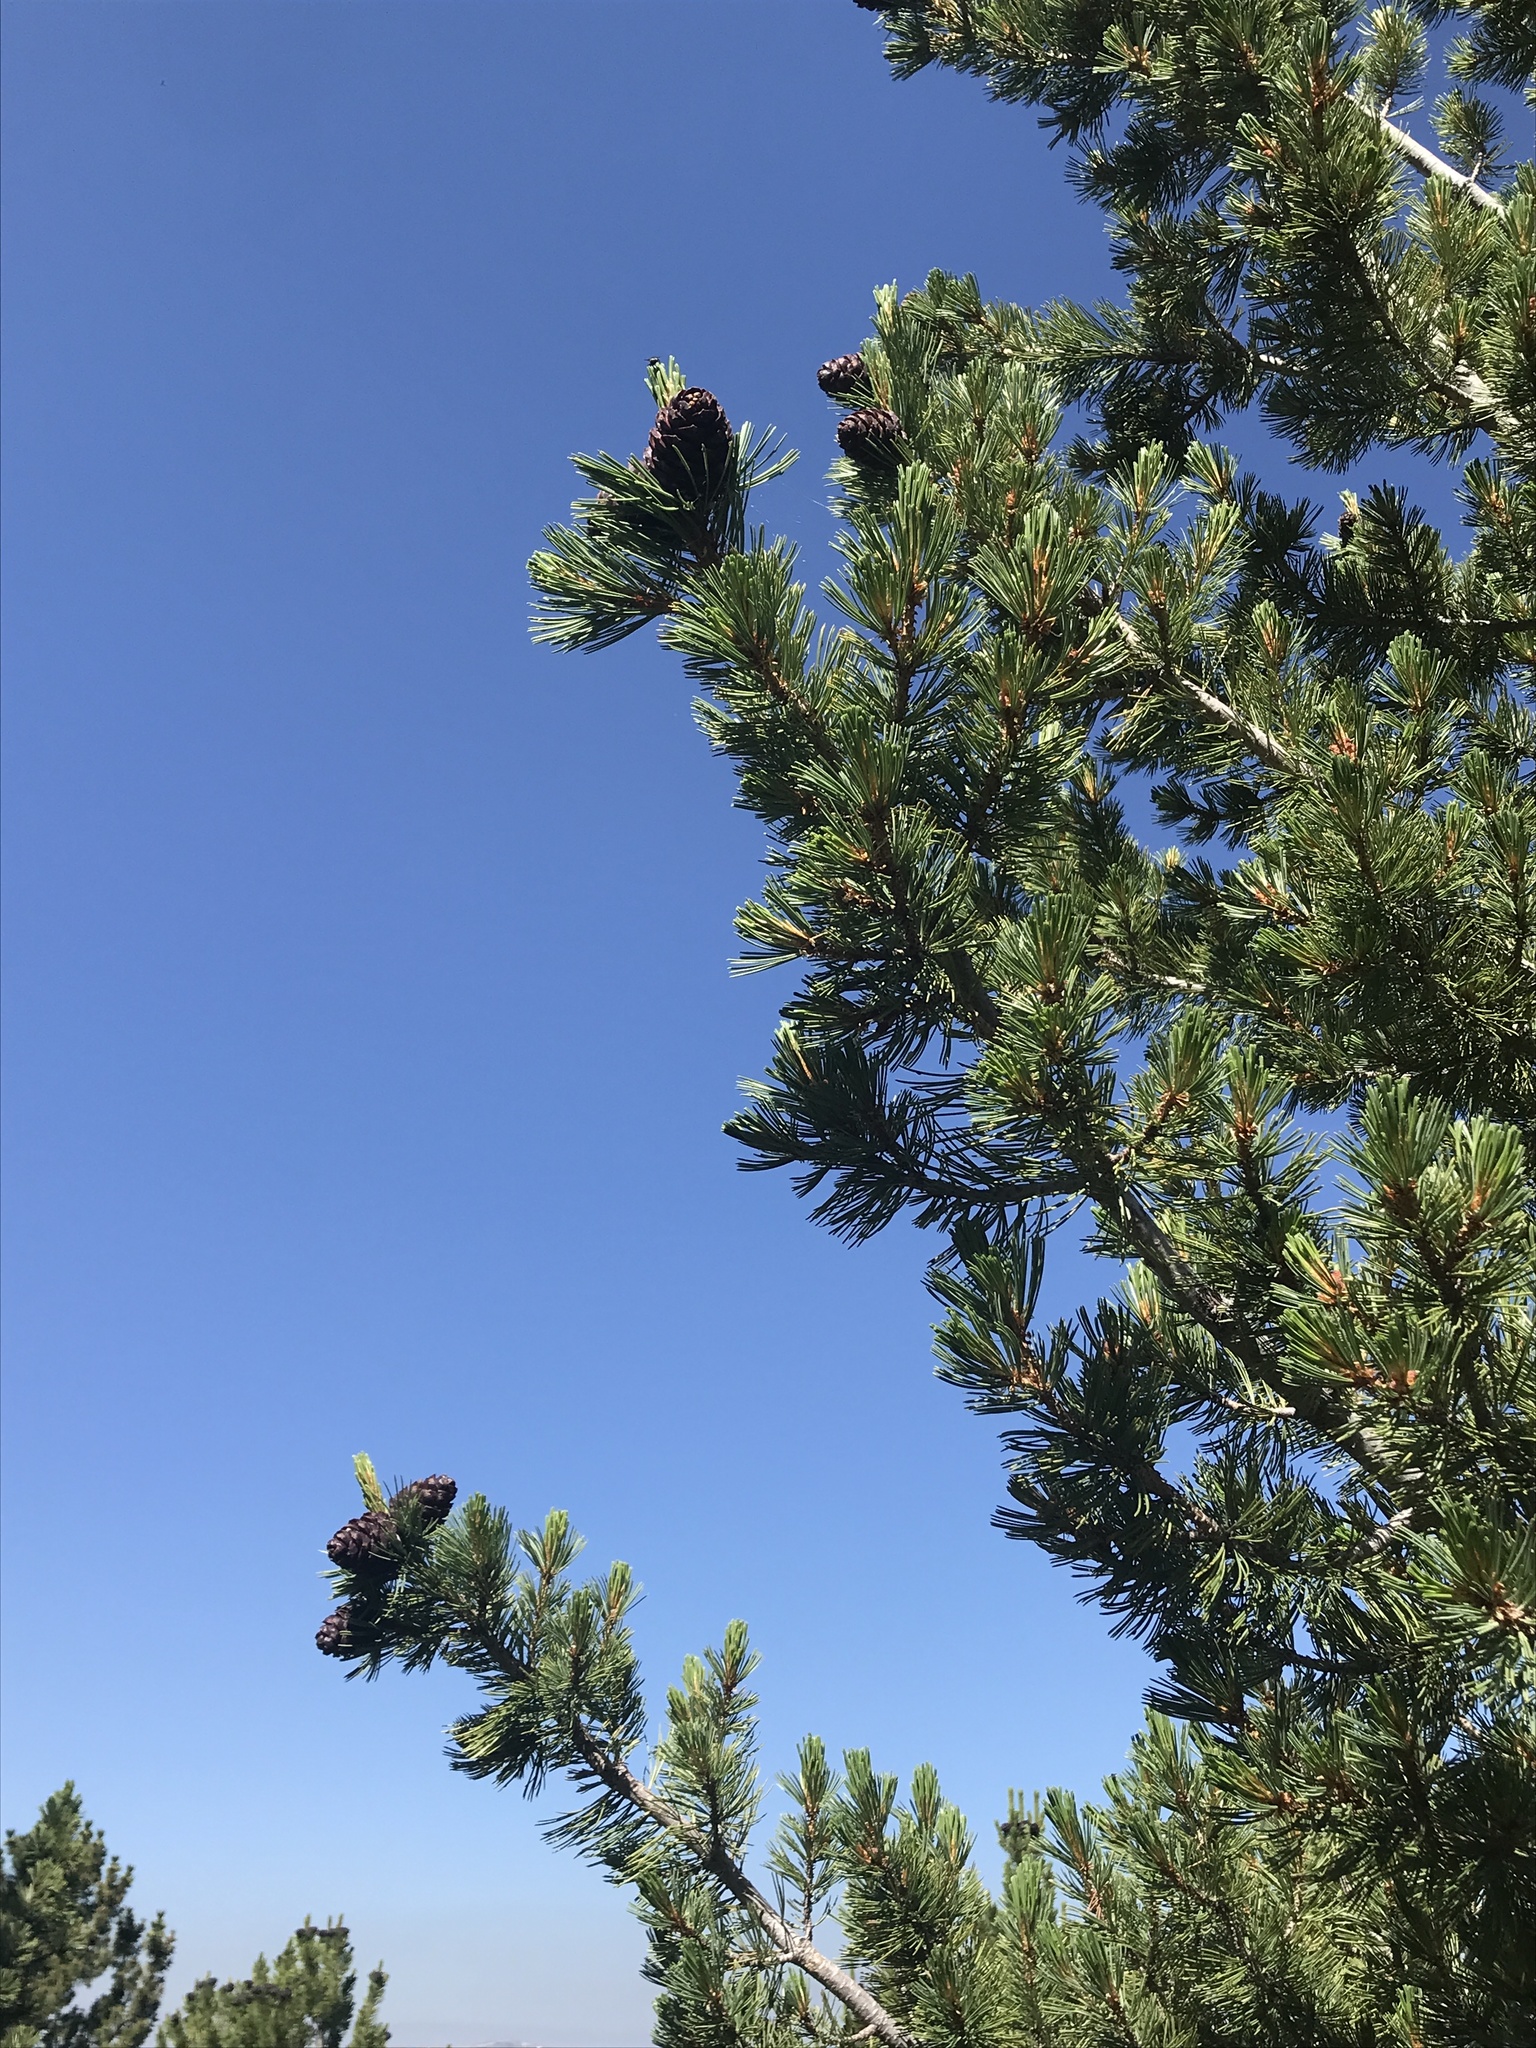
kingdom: Plantae
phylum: Tracheophyta
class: Pinopsida
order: Pinales
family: Pinaceae
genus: Pinus
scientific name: Pinus albicaulis
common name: Whitebark pine
